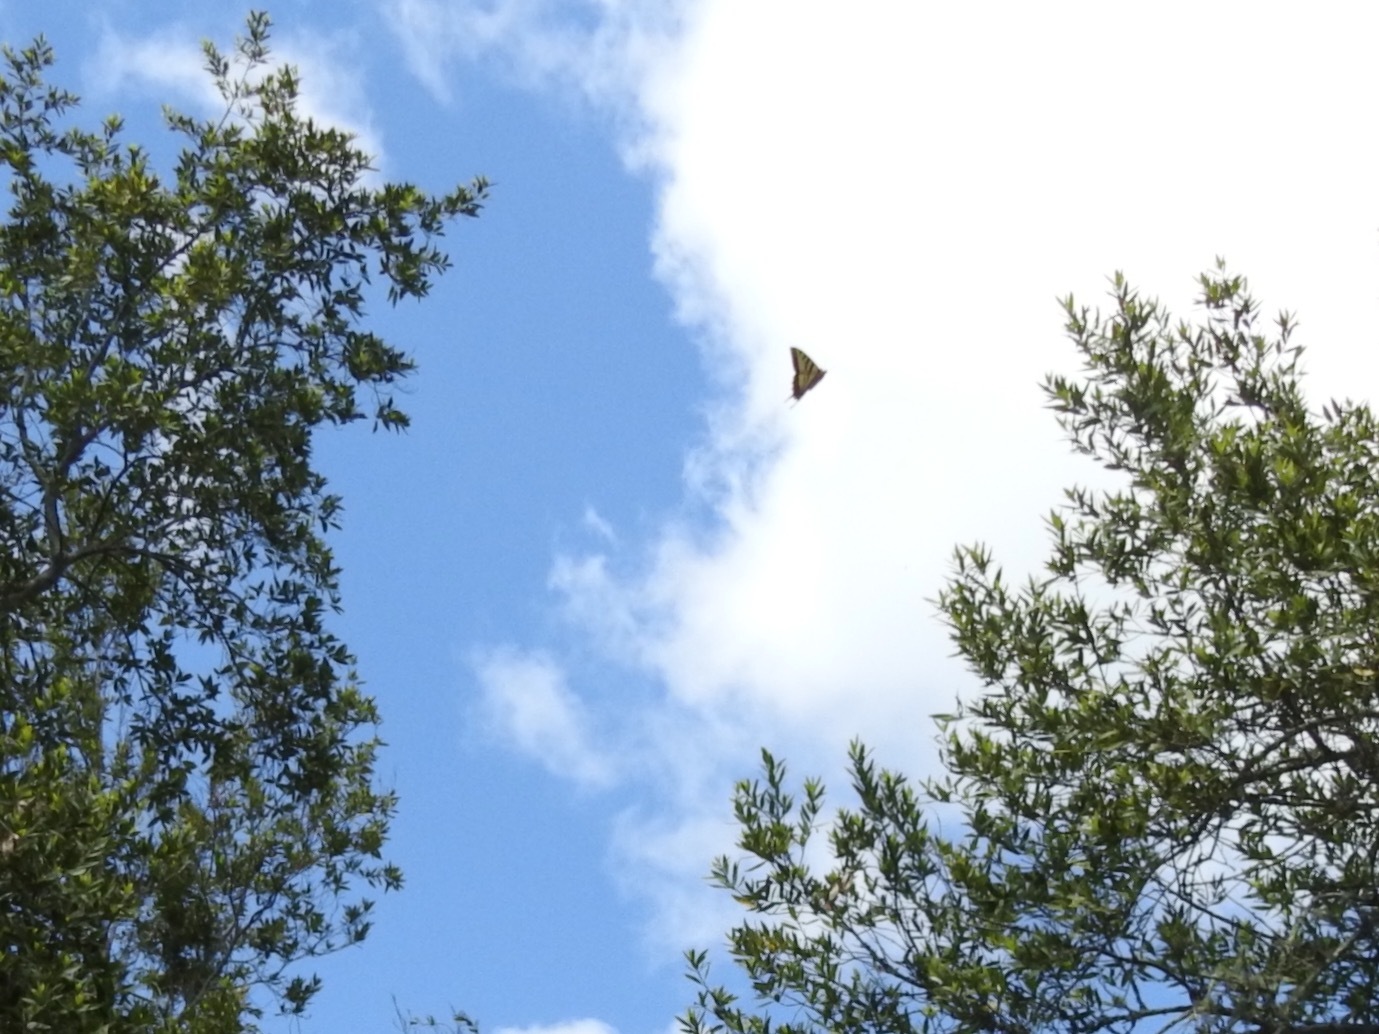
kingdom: Animalia
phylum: Arthropoda
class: Insecta
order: Lepidoptera
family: Papilionidae
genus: Papilio
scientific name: Papilio rutulus
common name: Western tiger swallowtail
